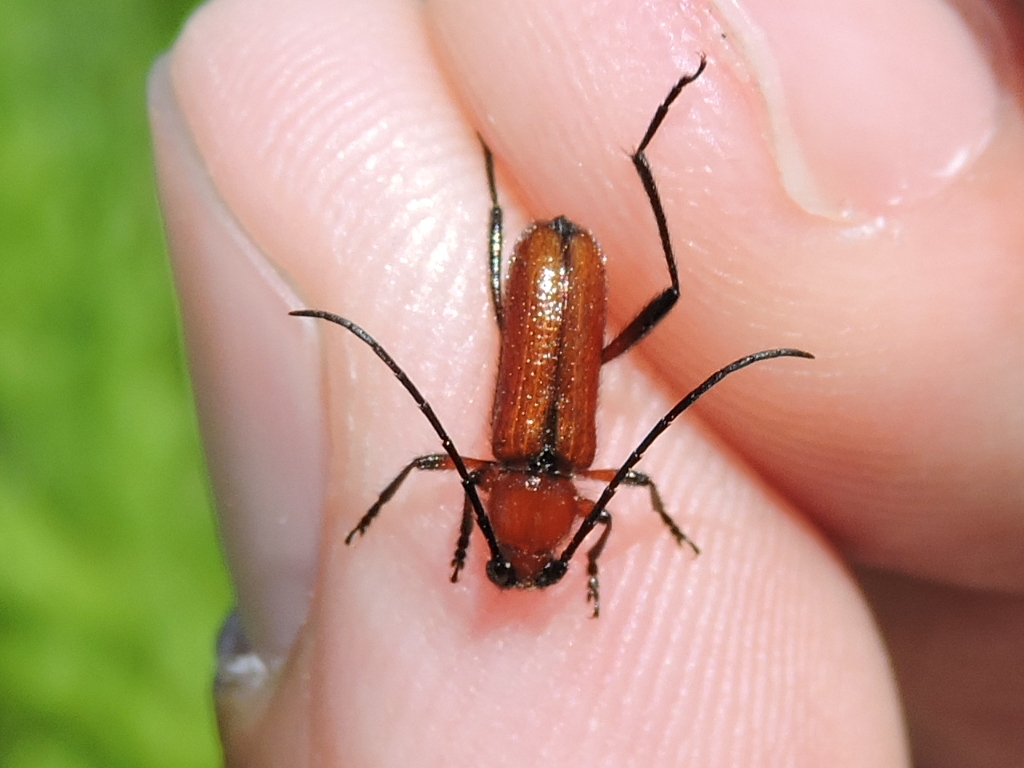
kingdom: Animalia
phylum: Arthropoda
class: Insecta
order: Coleoptera
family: Cerambycidae
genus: Batyle
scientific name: Batyle suturalis
